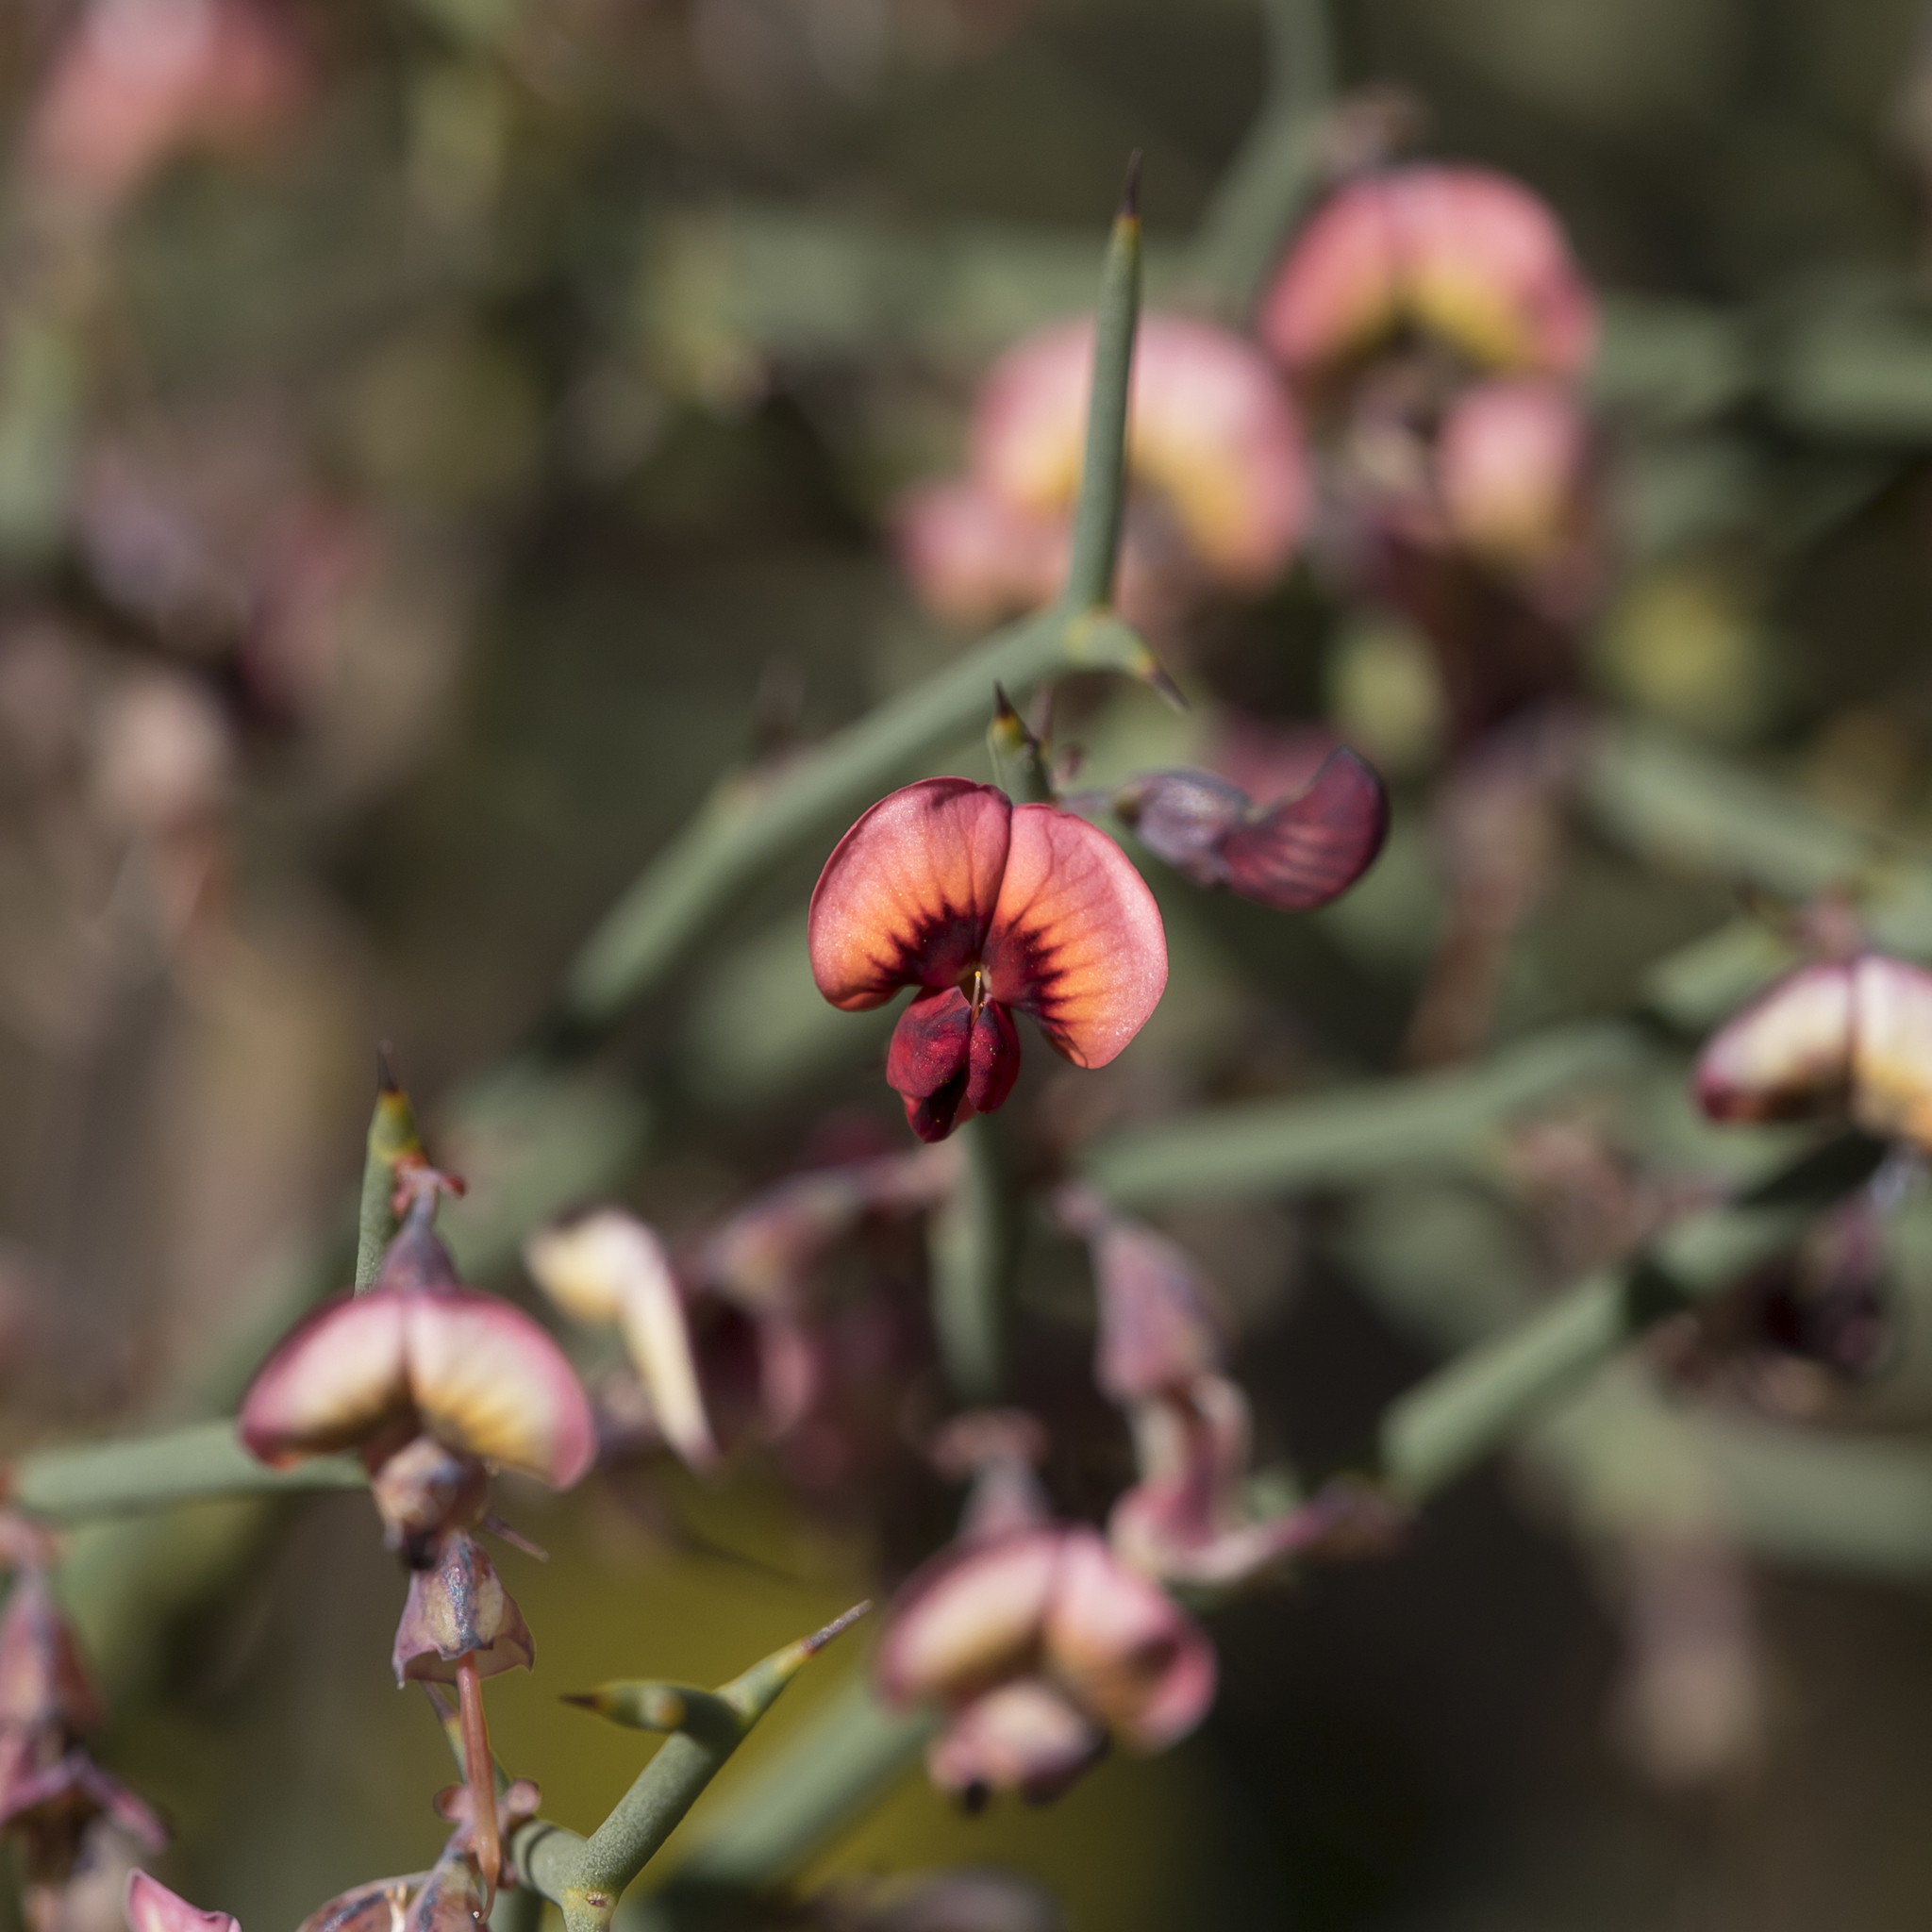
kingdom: Plantae
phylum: Tracheophyta
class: Magnoliopsida
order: Fabales
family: Fabaceae
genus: Daviesia
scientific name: Daviesia brevifolia
